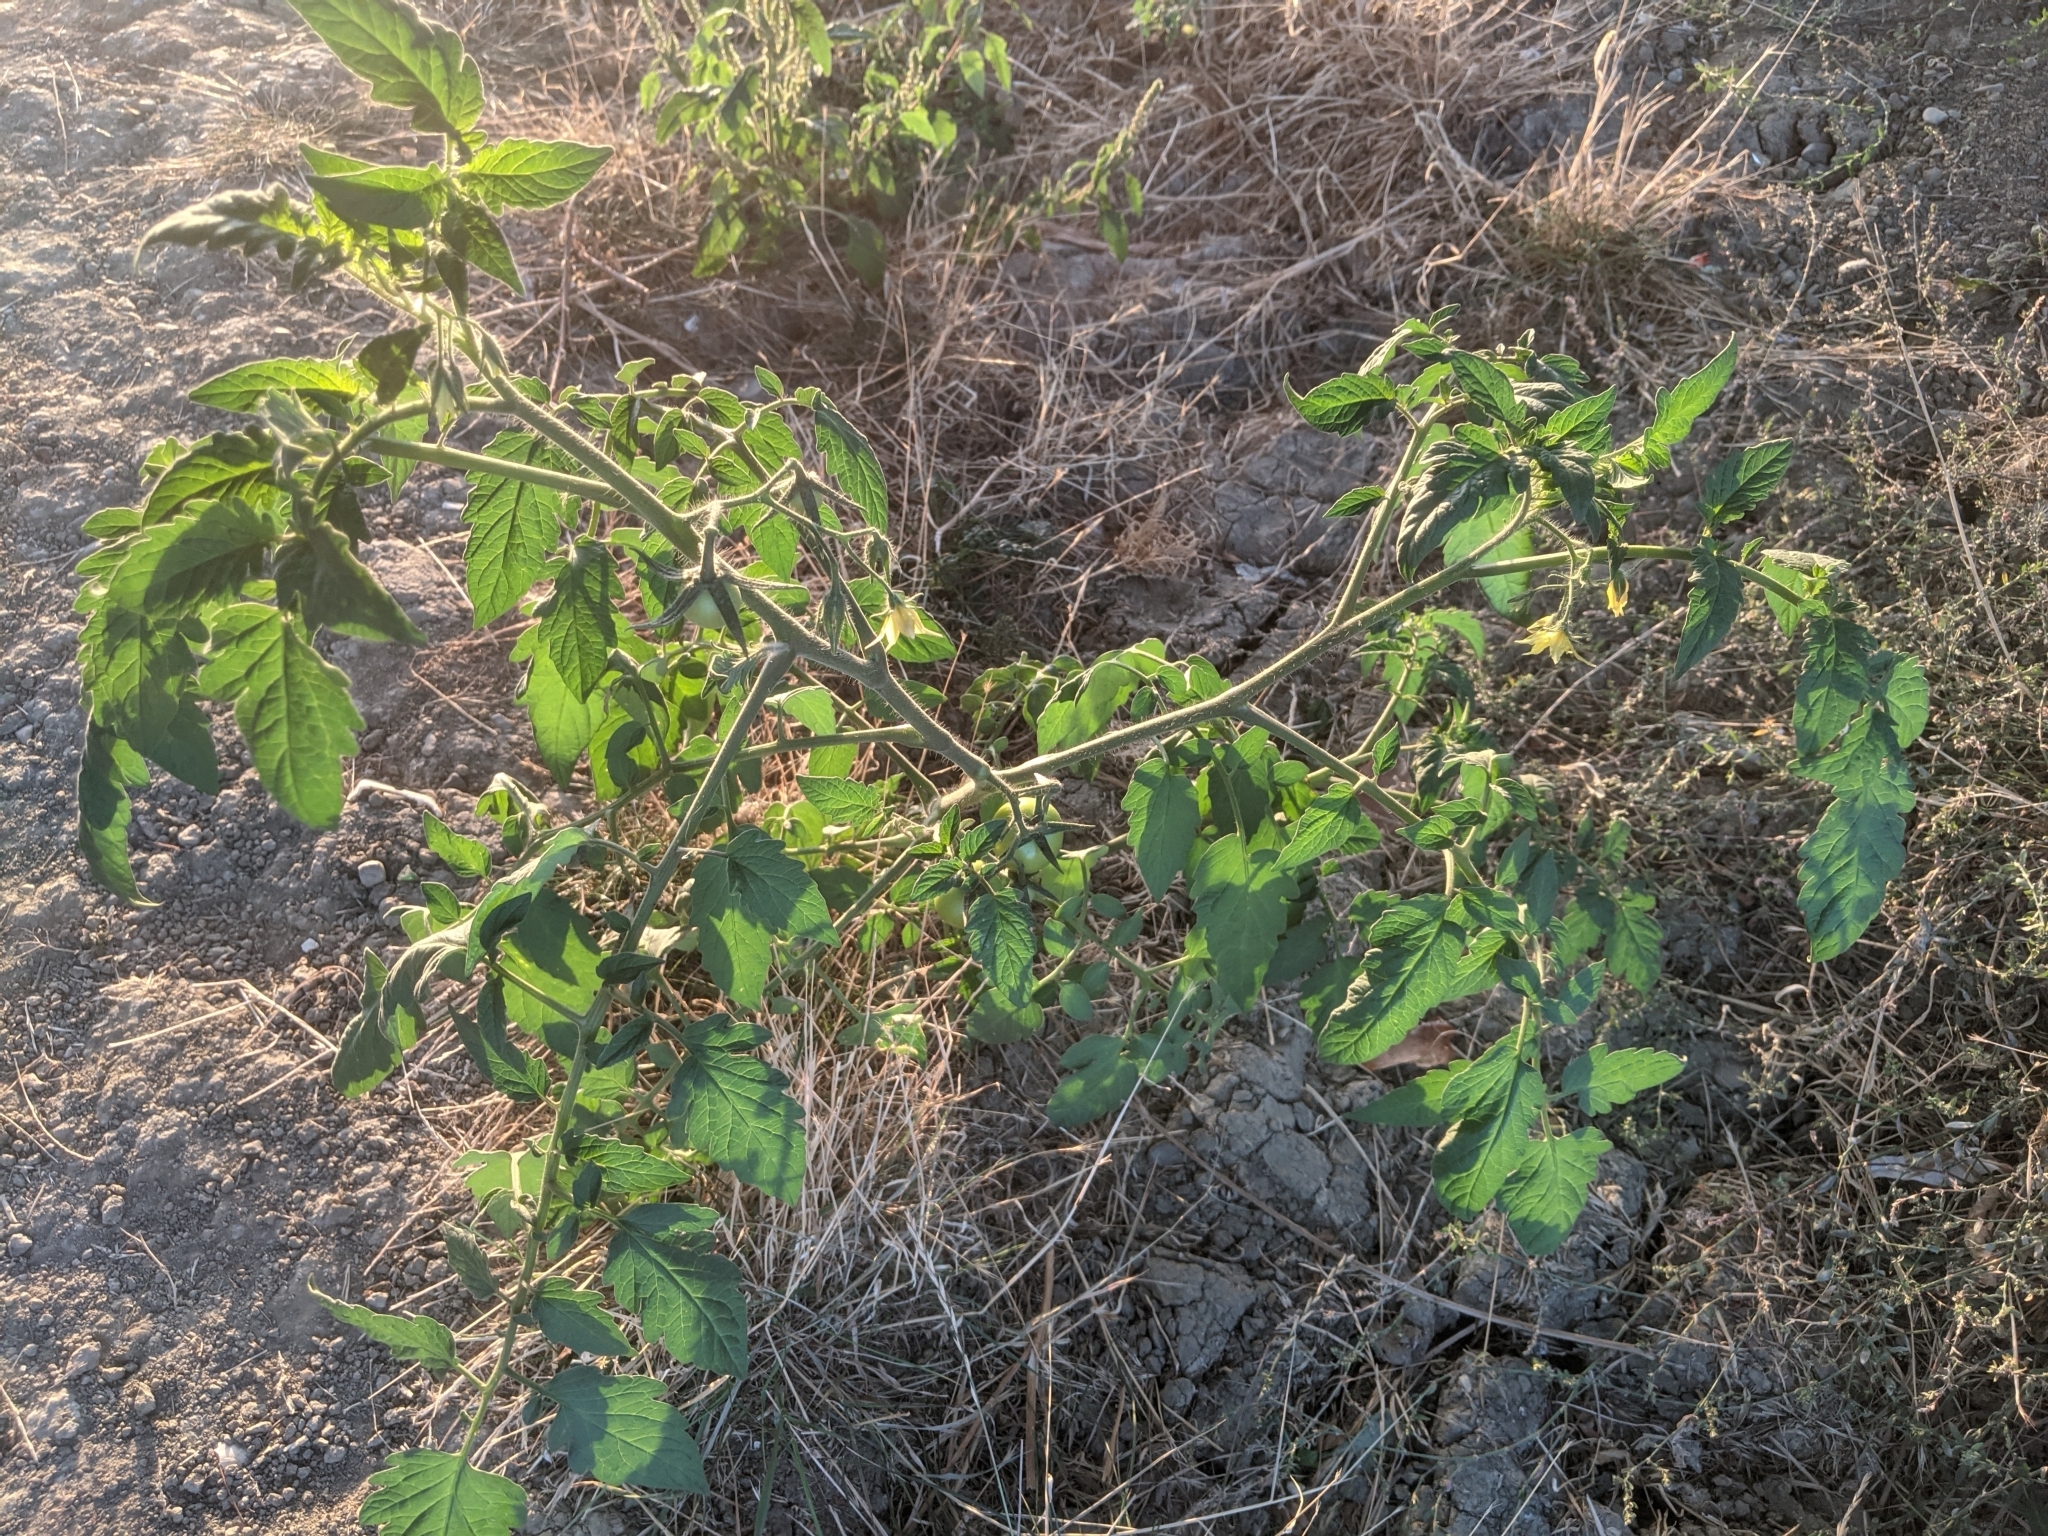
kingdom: Plantae
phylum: Tracheophyta
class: Magnoliopsida
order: Solanales
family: Solanaceae
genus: Solanum
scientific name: Solanum lycopersicum
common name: Garden tomato
